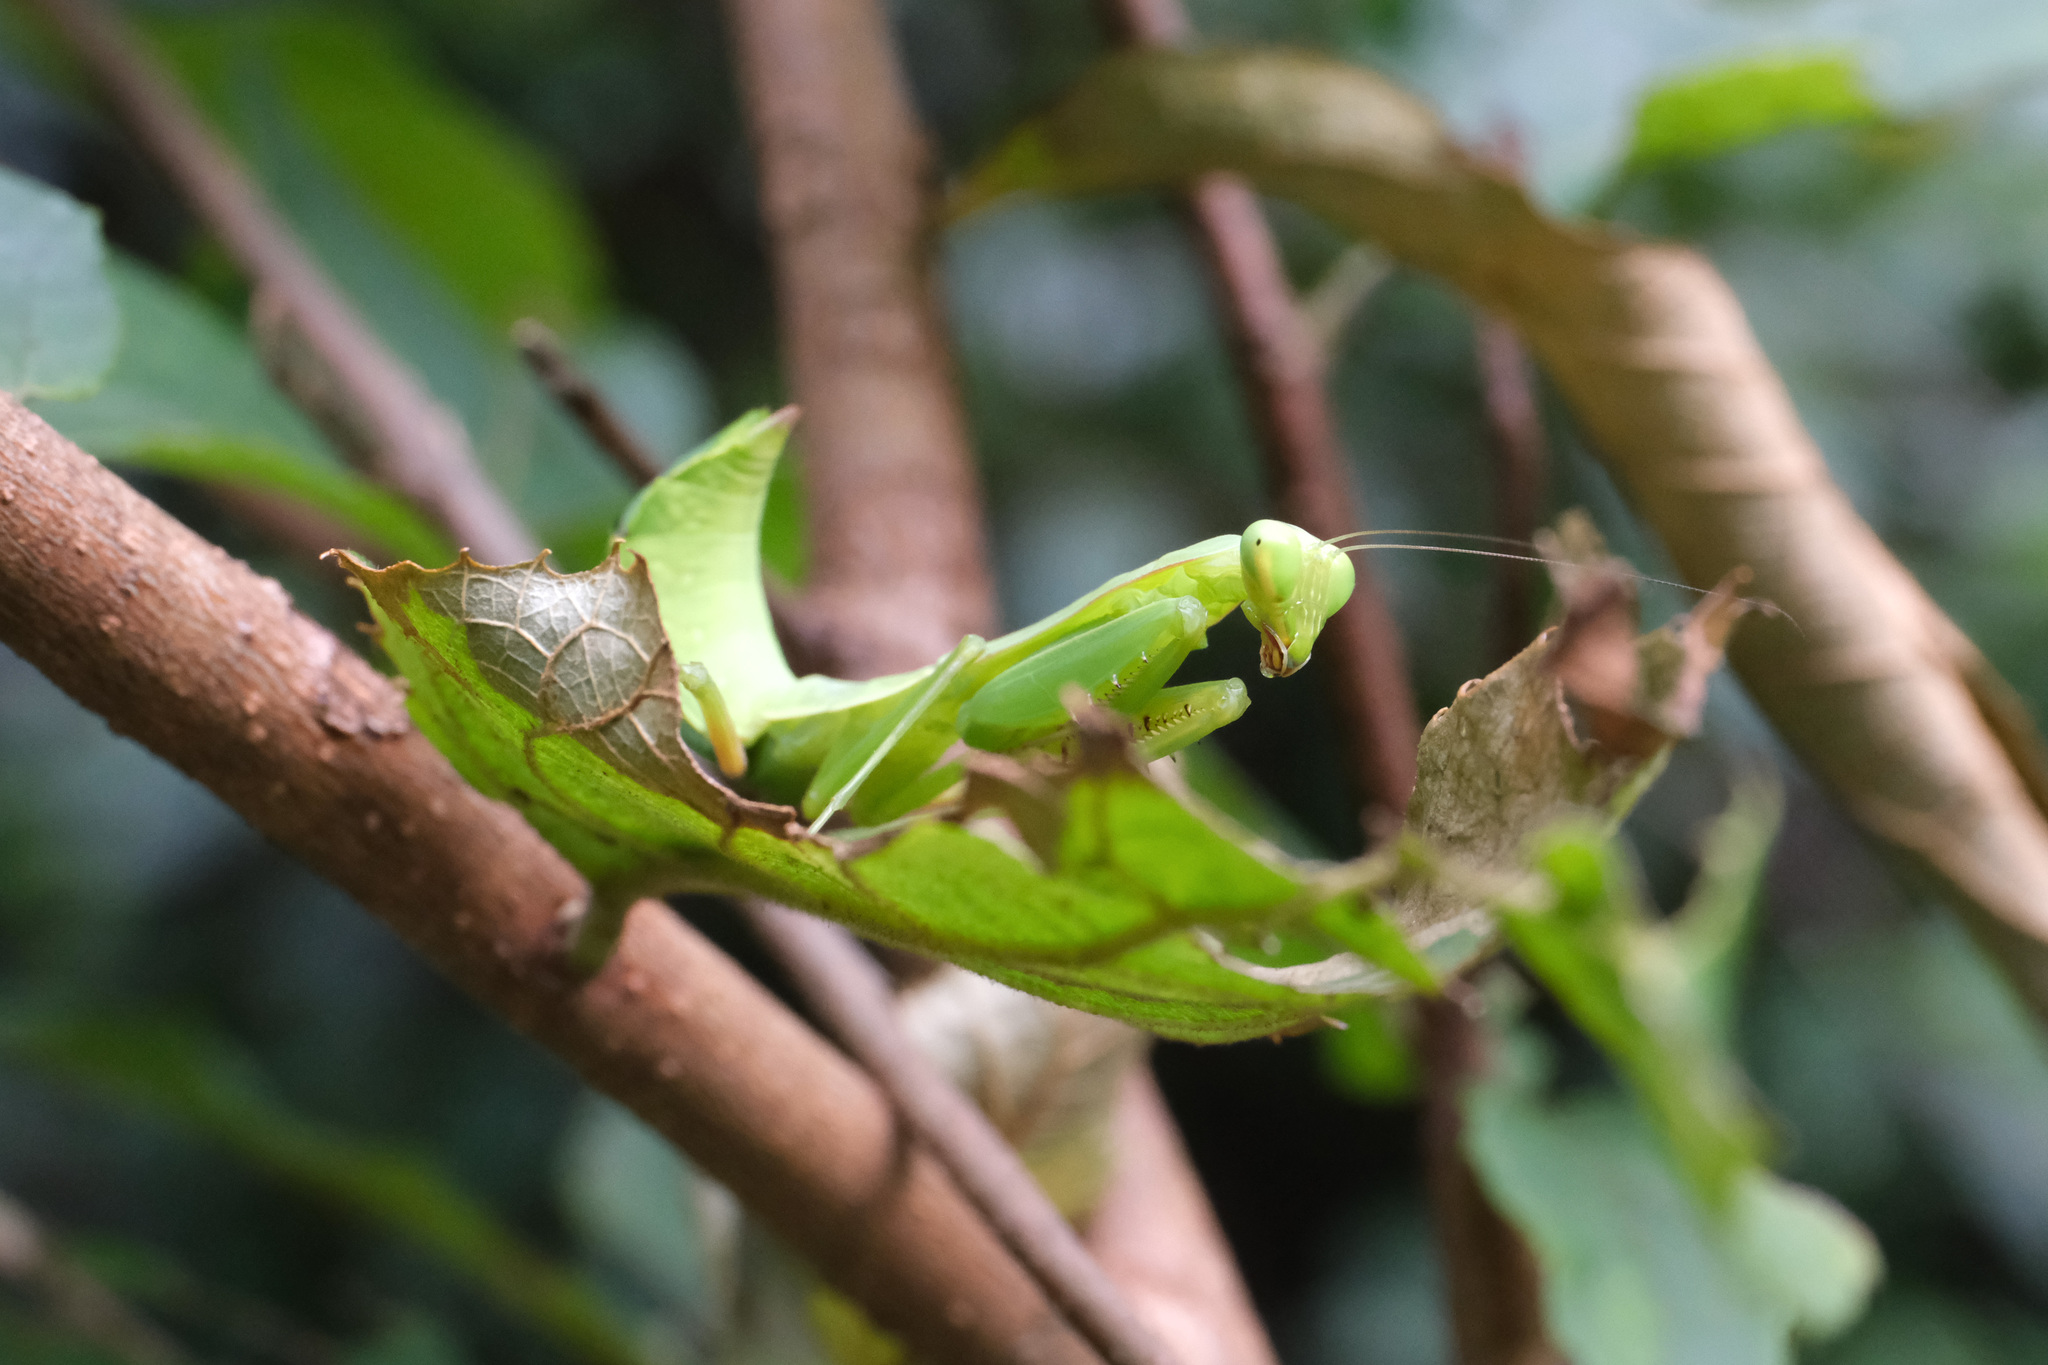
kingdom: Animalia
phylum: Arthropoda
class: Insecta
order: Mantodea
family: Mantidae
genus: Hierodula
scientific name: Hierodula chinensis
